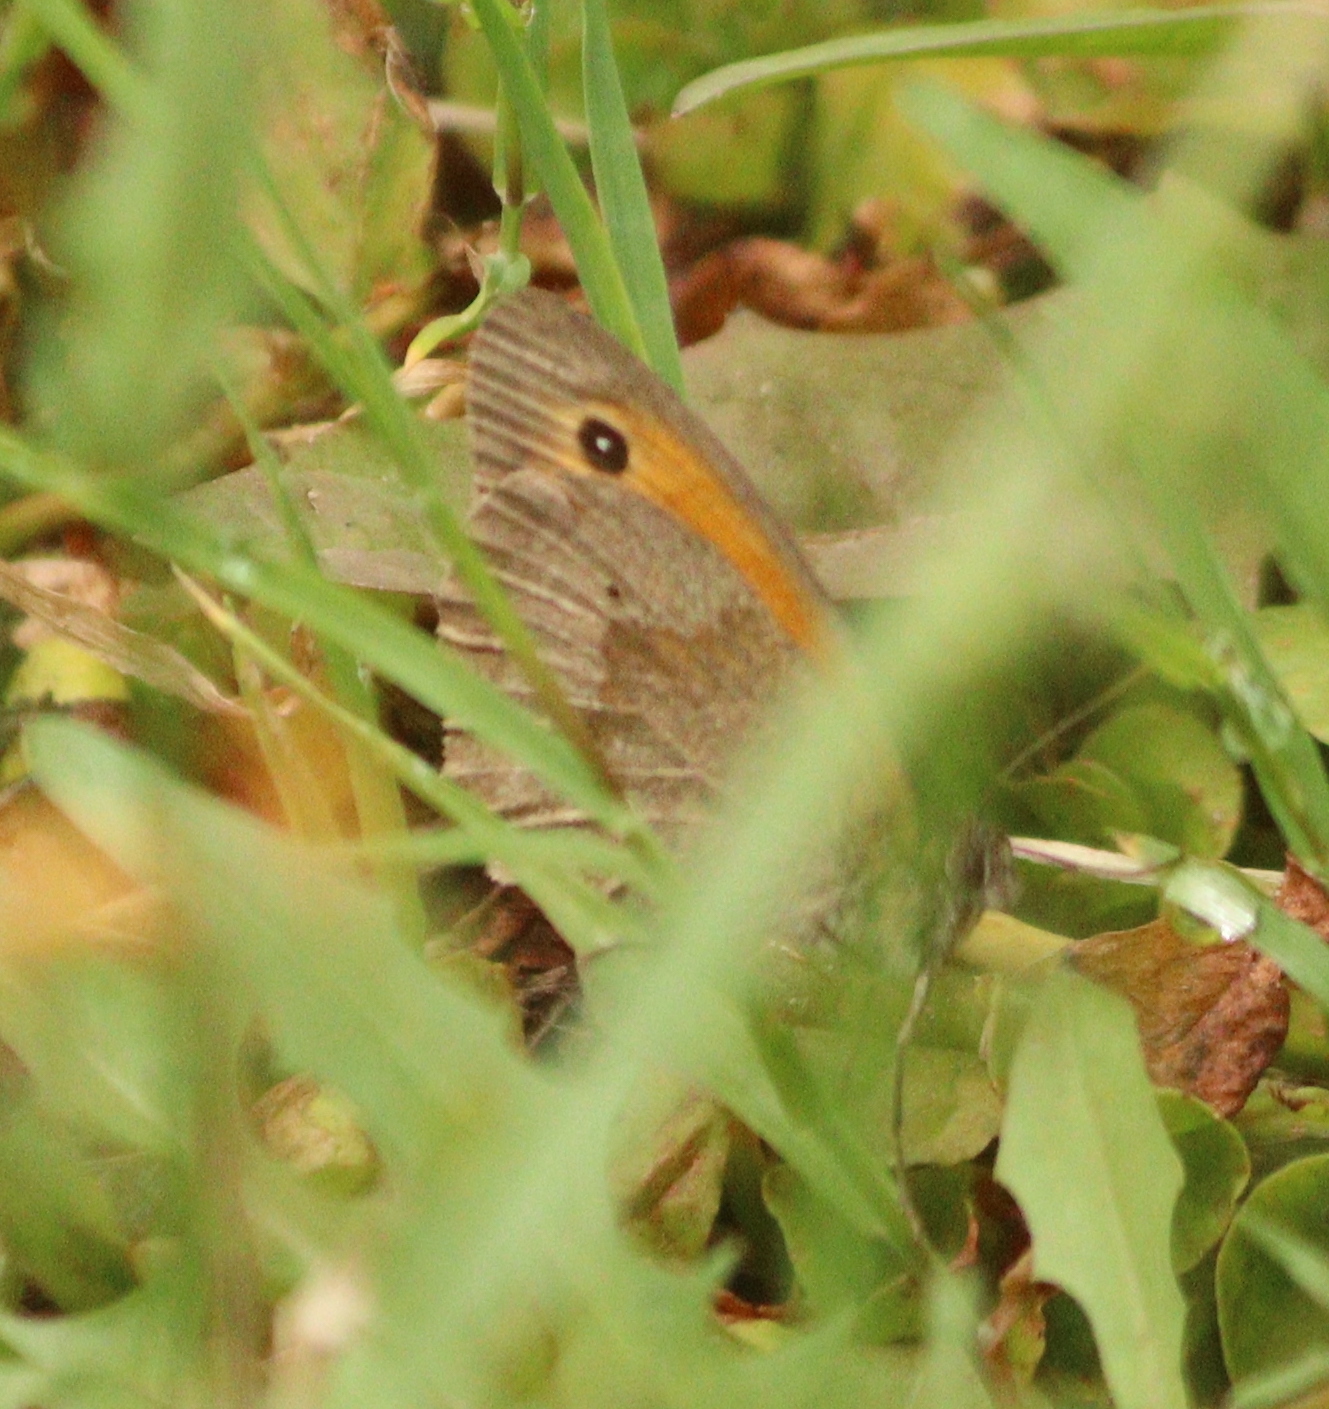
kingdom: Animalia
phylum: Arthropoda
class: Insecta
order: Lepidoptera
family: Nymphalidae
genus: Maniola
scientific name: Maniola jurtina
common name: Meadow brown
